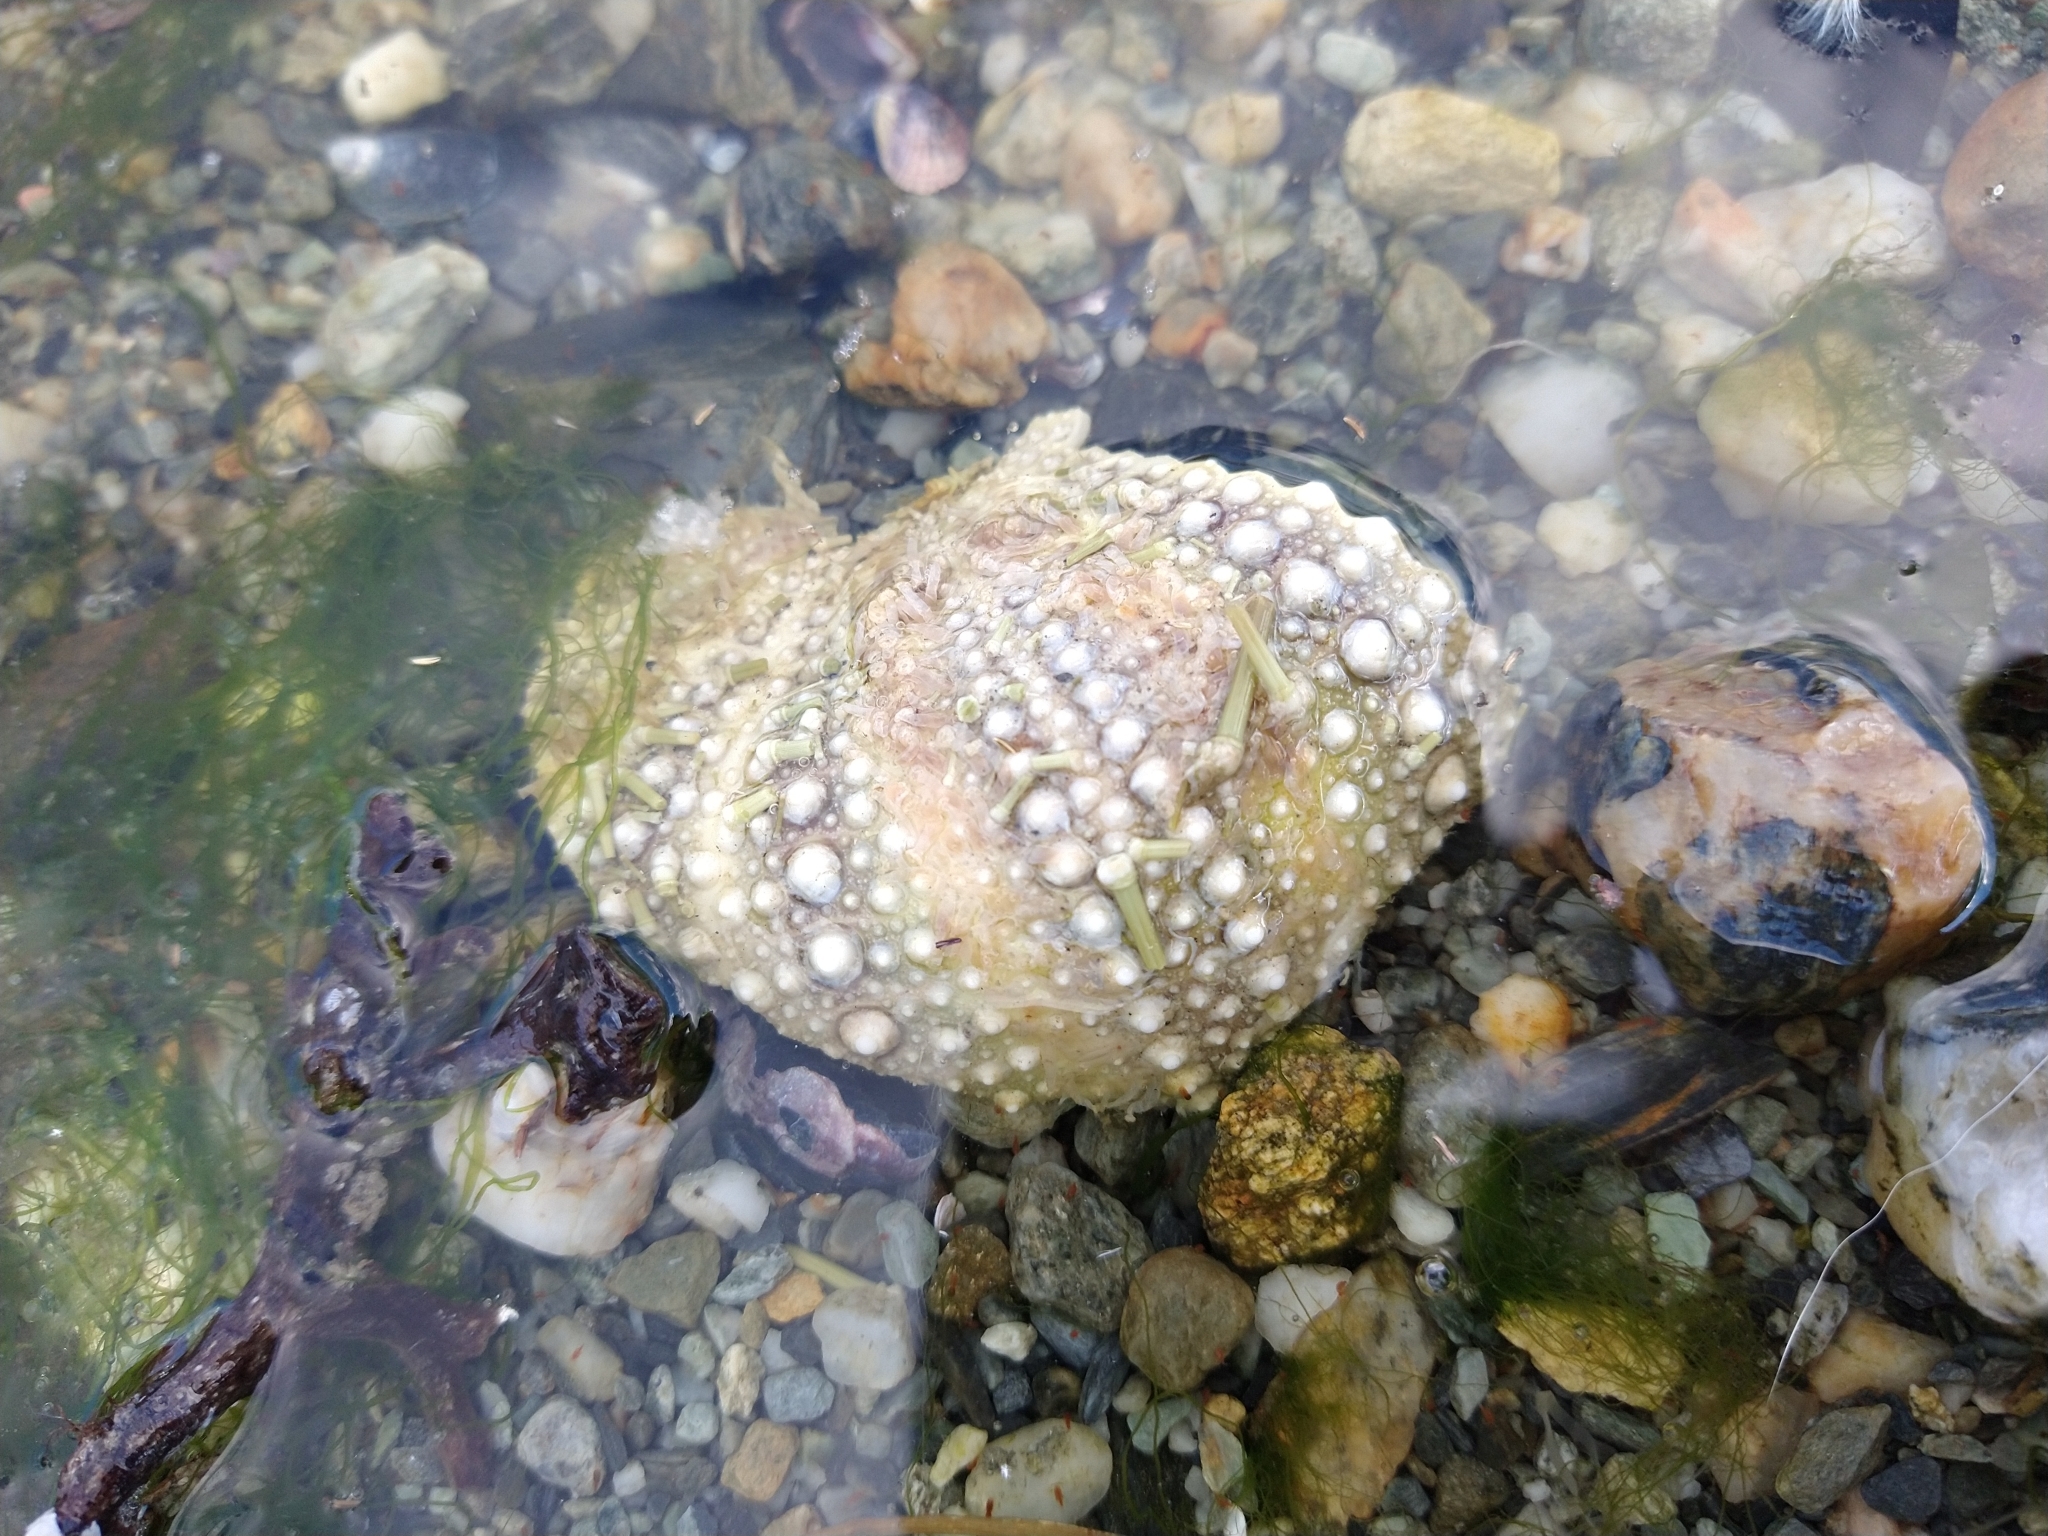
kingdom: Animalia
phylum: Echinodermata
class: Echinoidea
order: Camarodonta
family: Parechinidae
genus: Loxechinus
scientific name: Loxechinus albus
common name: Chilean sea urchin
